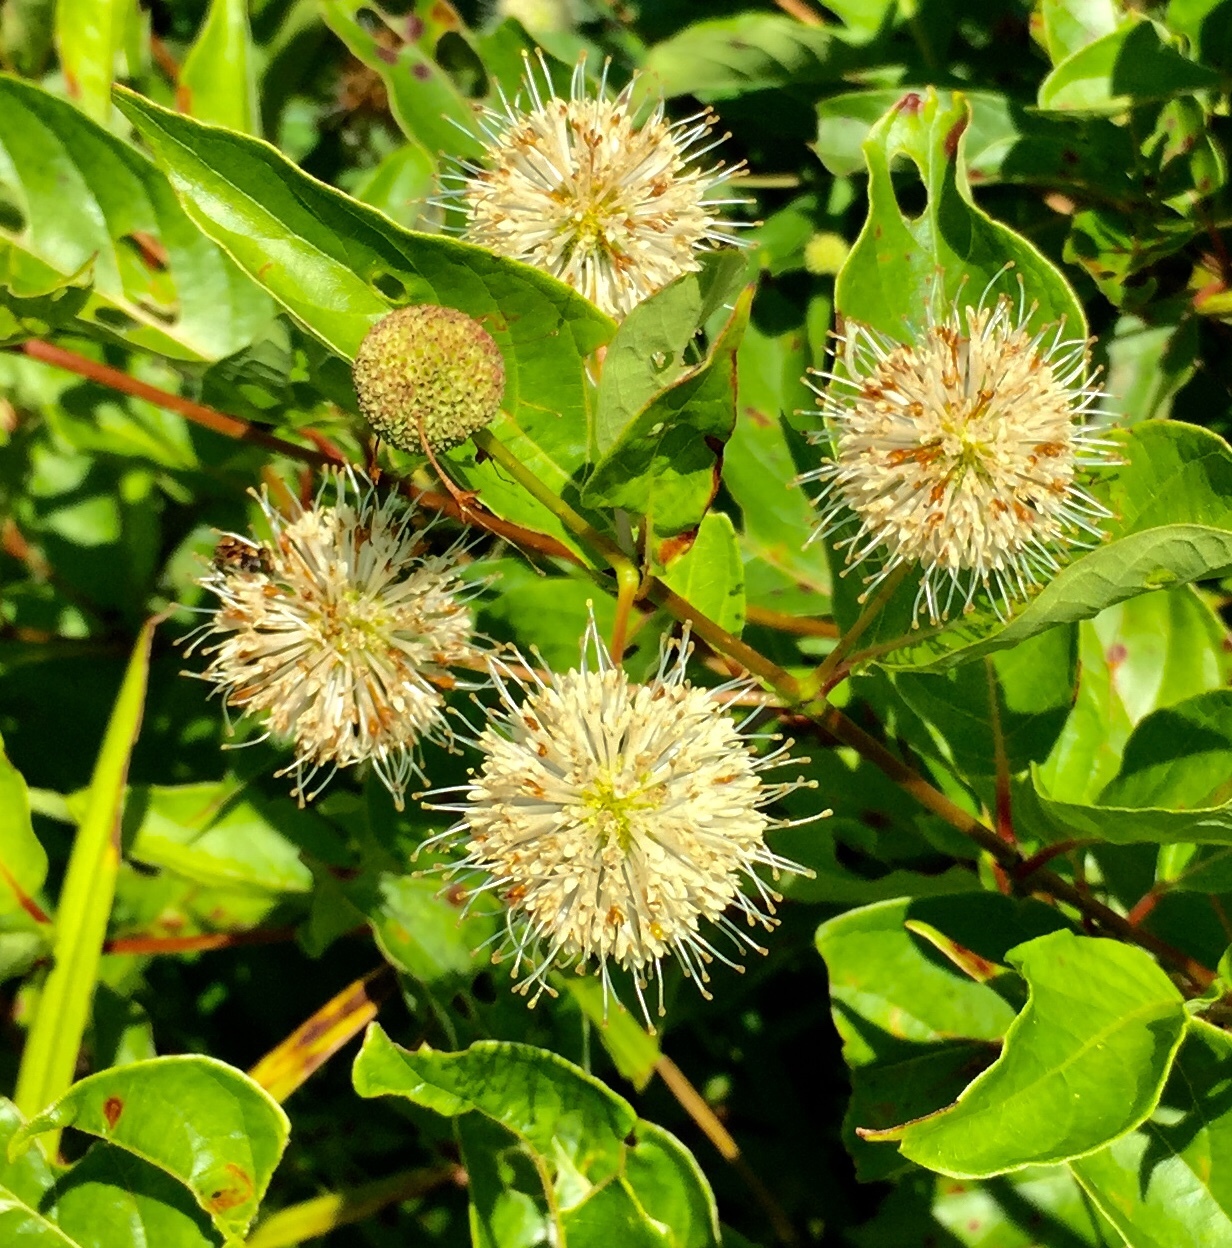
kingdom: Plantae
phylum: Tracheophyta
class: Magnoliopsida
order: Gentianales
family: Rubiaceae
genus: Cephalanthus
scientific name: Cephalanthus occidentalis
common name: Button-willow
